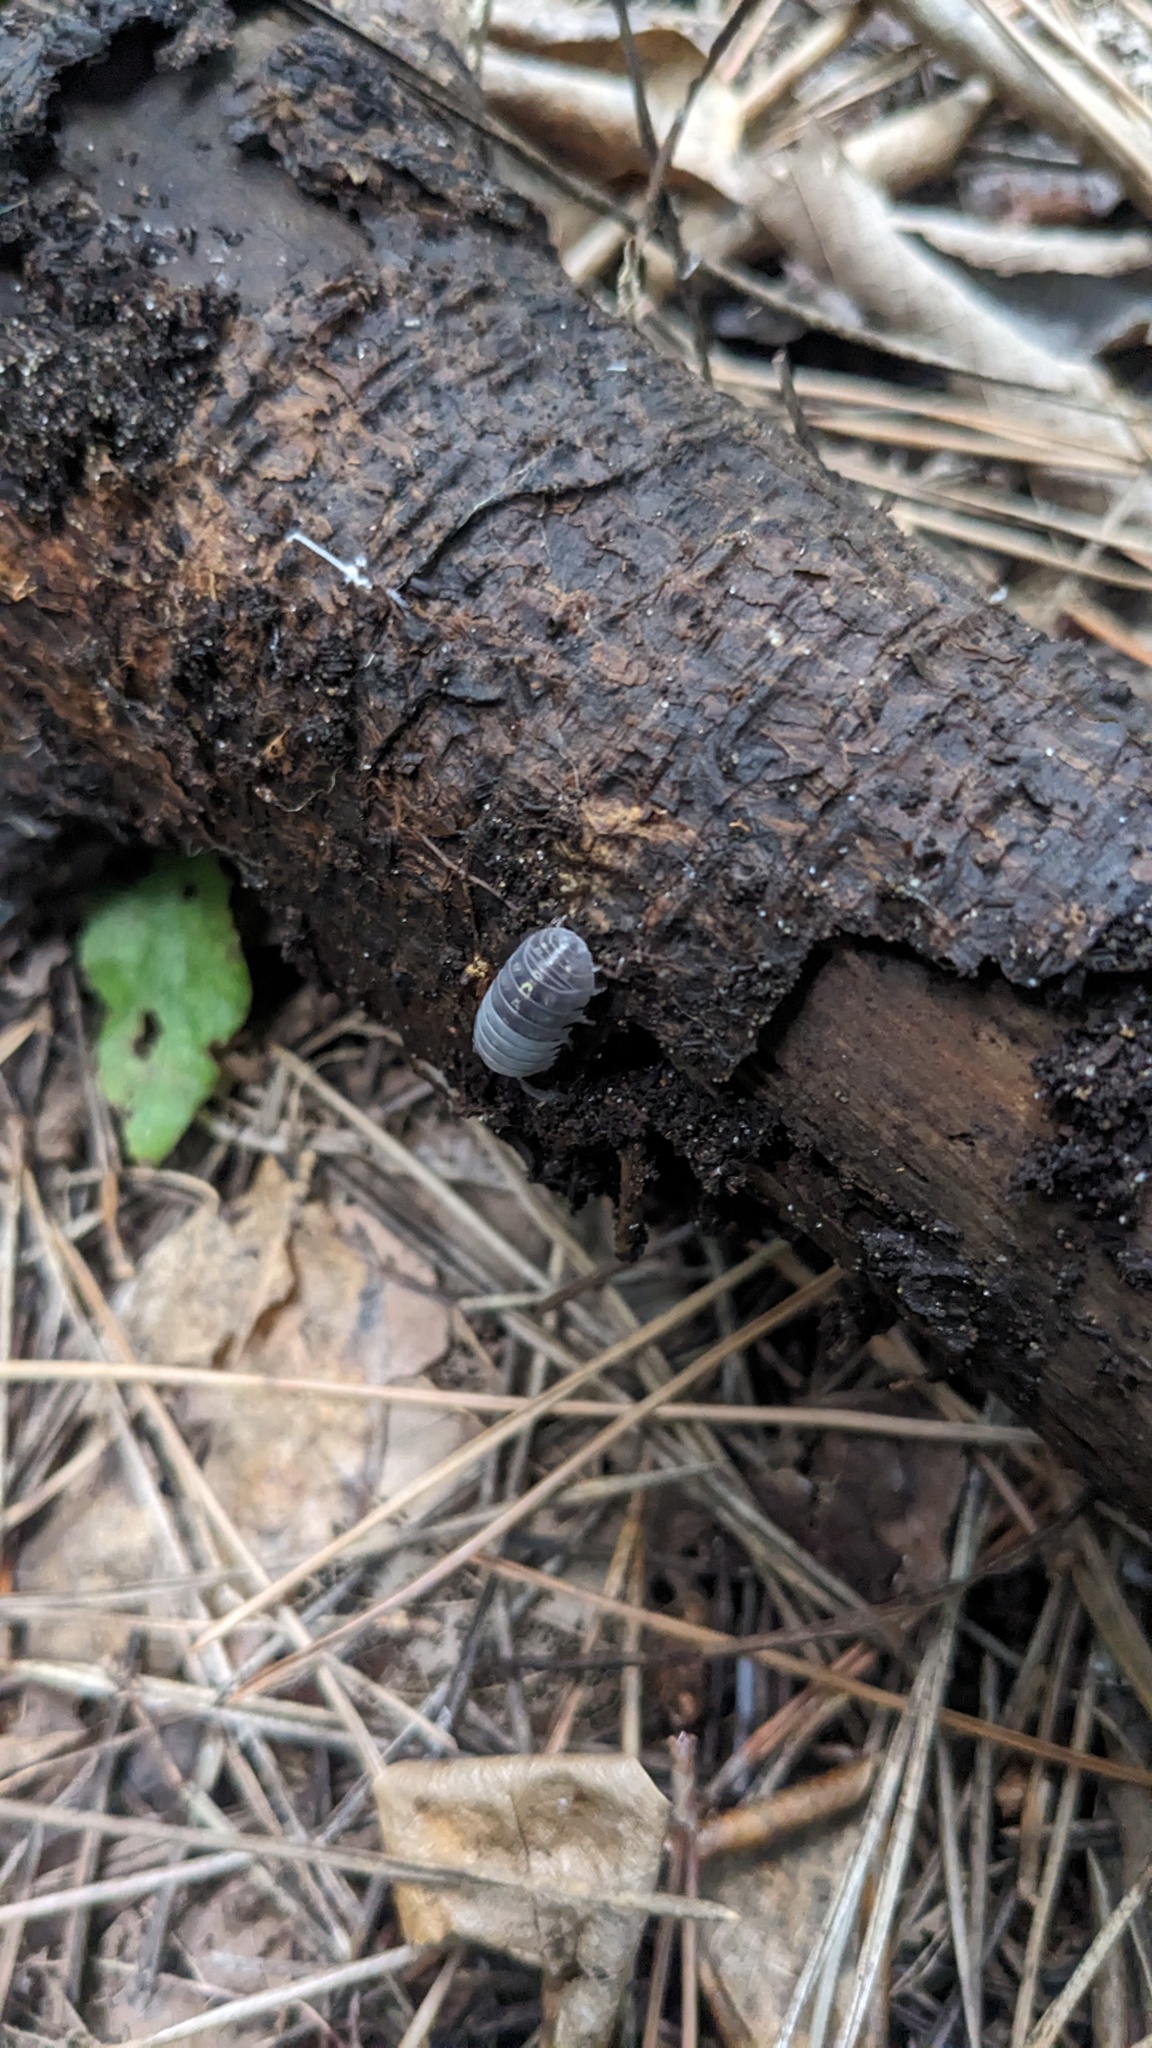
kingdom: Animalia
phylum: Arthropoda
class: Malacostraca
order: Isopoda
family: Armadillidiidae
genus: Armadillidium
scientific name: Armadillidium vulgare
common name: Common pill woodlouse
